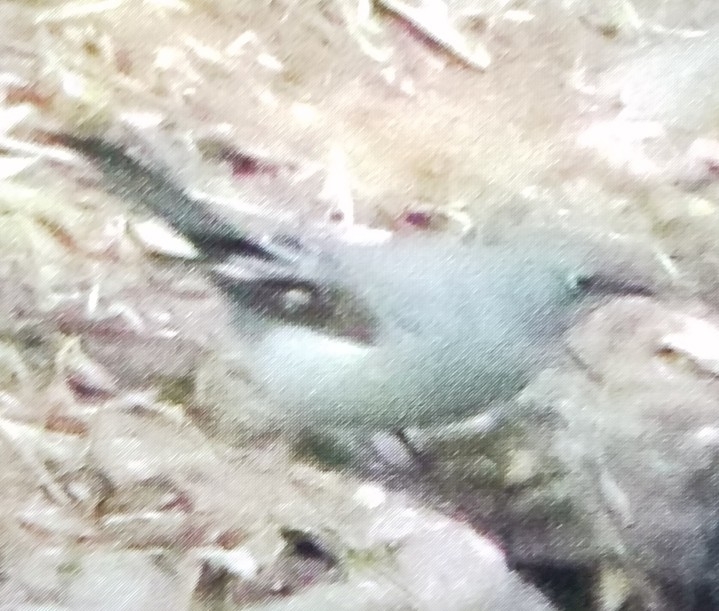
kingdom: Animalia
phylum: Chordata
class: Aves
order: Passeriformes
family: Turdidae
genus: Myadestes
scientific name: Myadestes townsendi
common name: Townsend's solitaire
